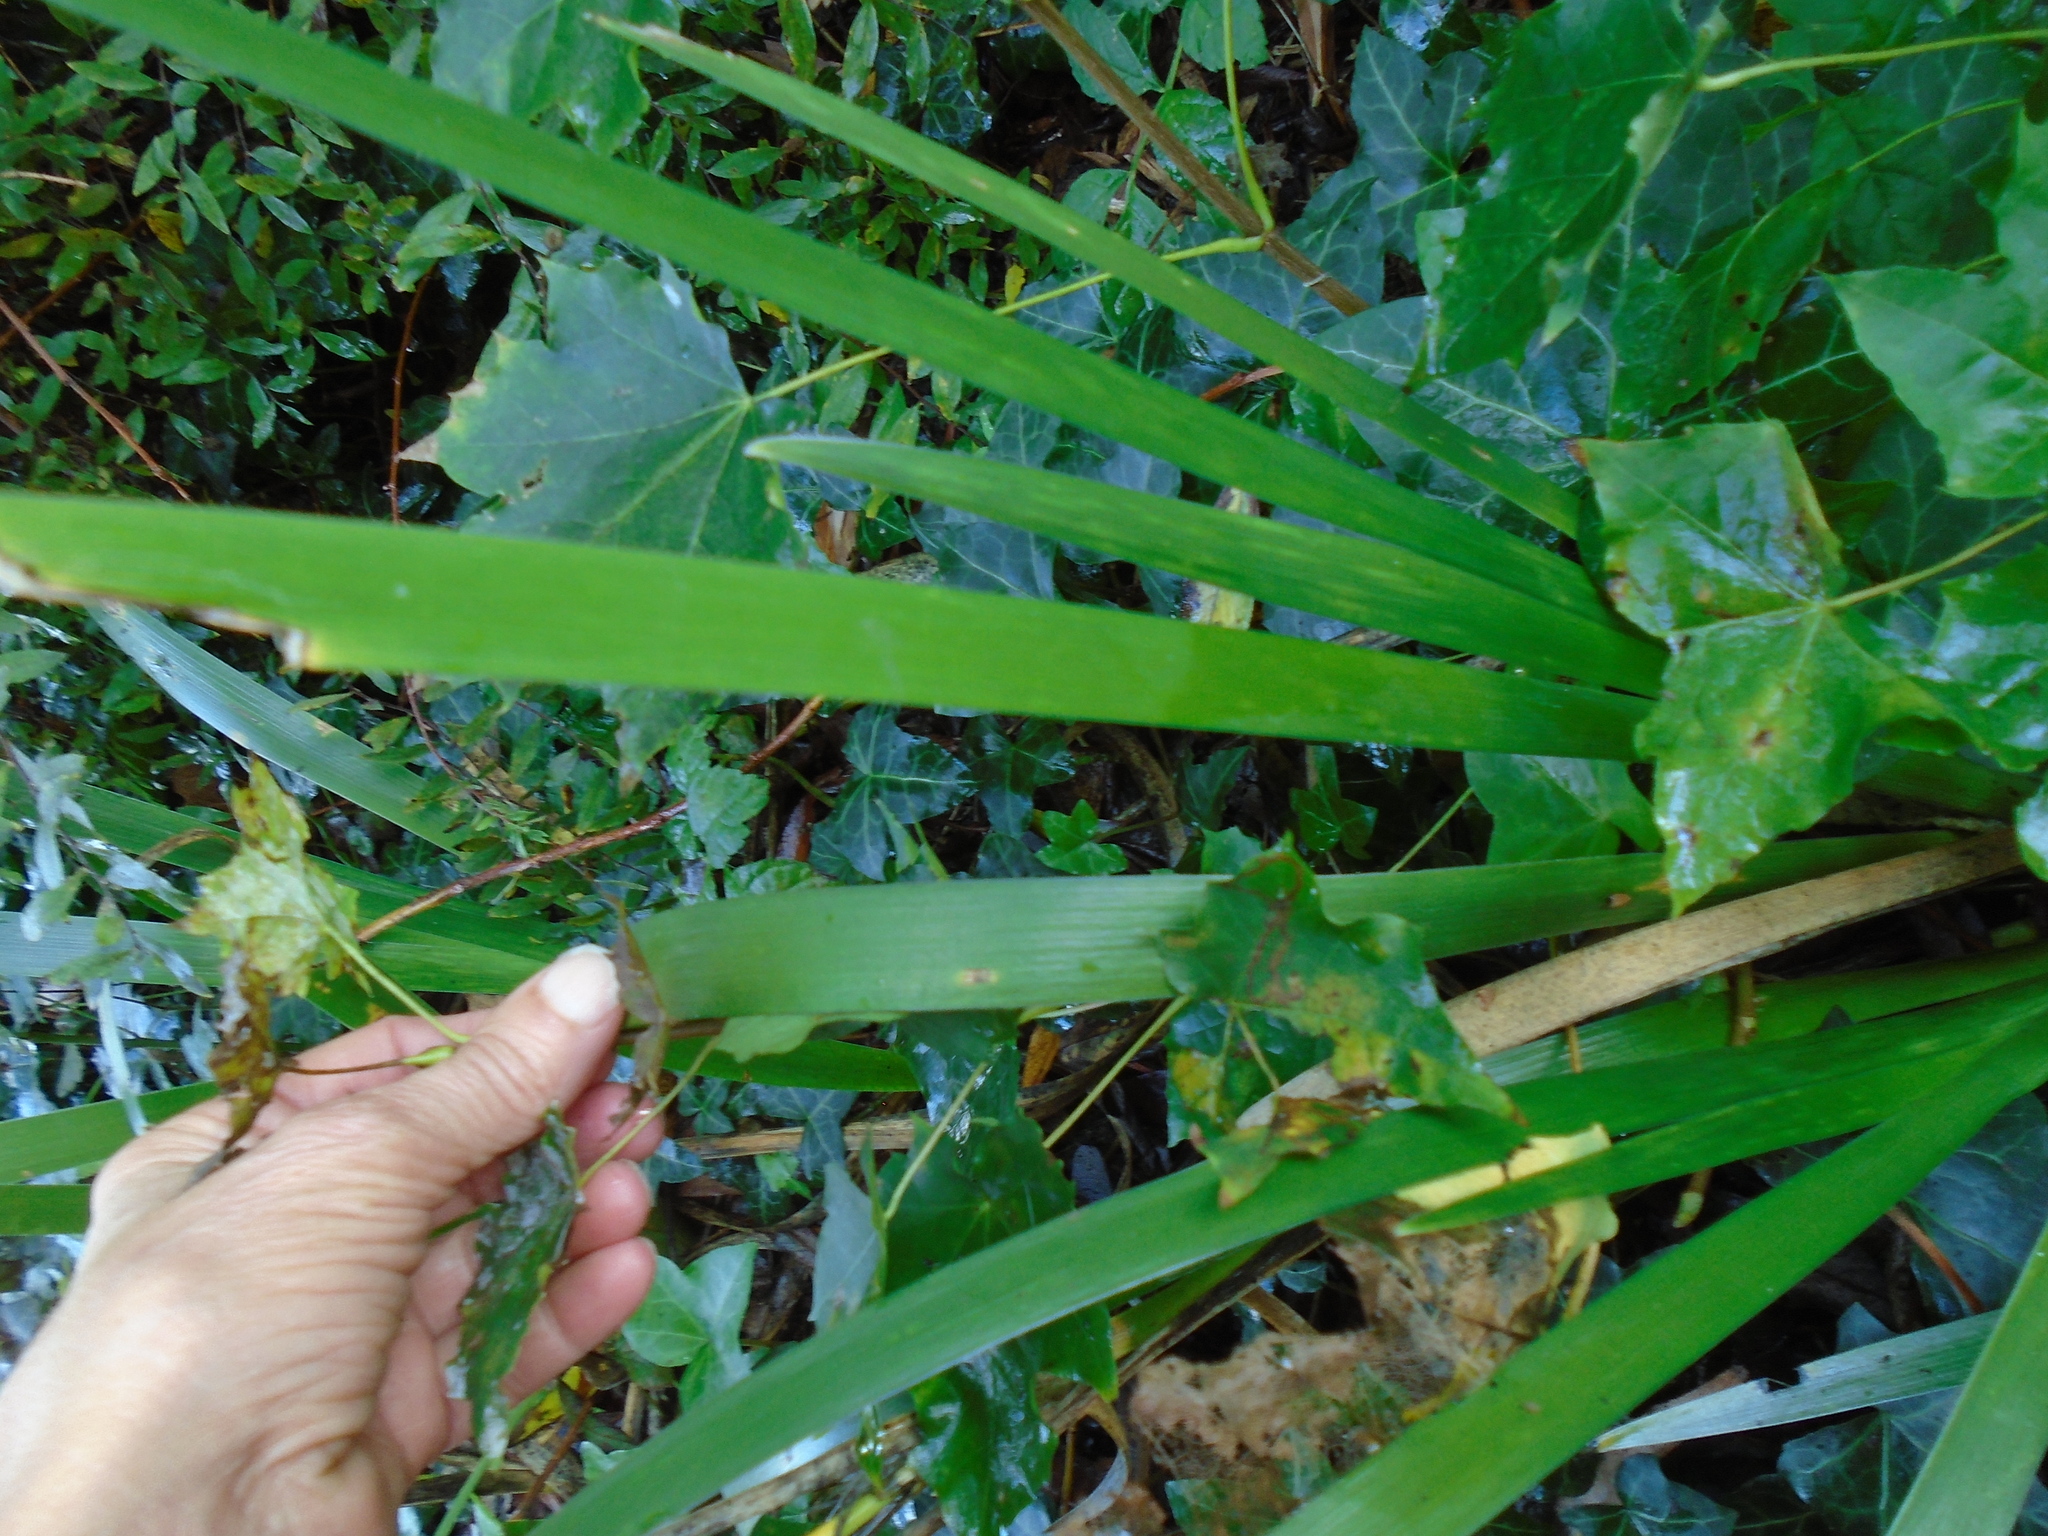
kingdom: Plantae
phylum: Tracheophyta
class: Liliopsida
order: Asparagales
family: Iridaceae
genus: Iris
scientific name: Iris foetidissima
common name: Stinking iris
